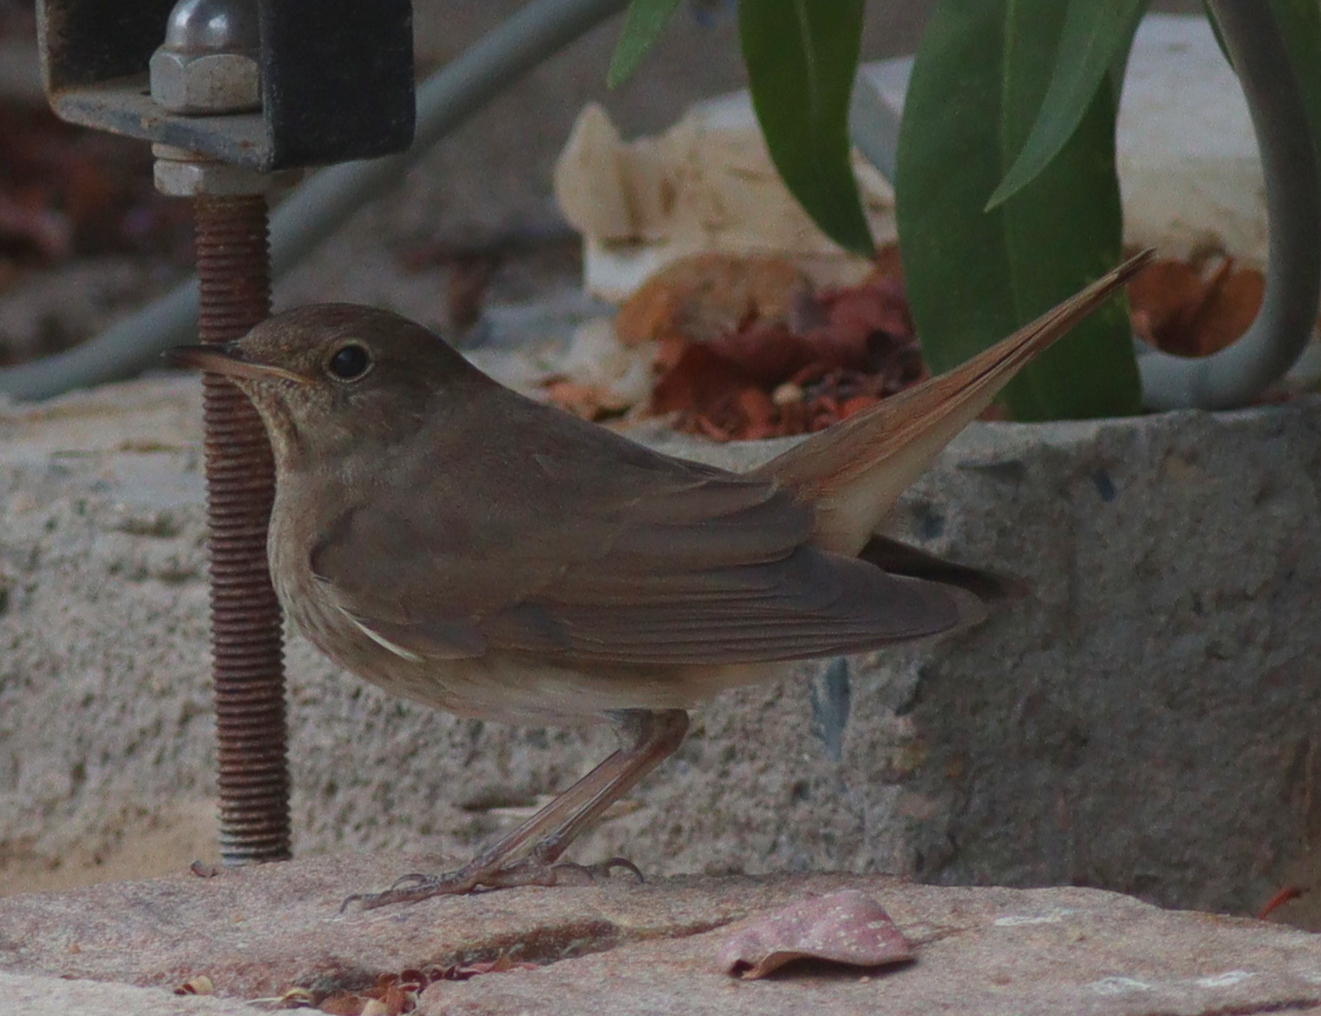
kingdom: Animalia
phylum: Chordata
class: Aves
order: Passeriformes
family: Muscicapidae
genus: Luscinia
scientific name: Luscinia luscinia
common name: Thrush nightingale
